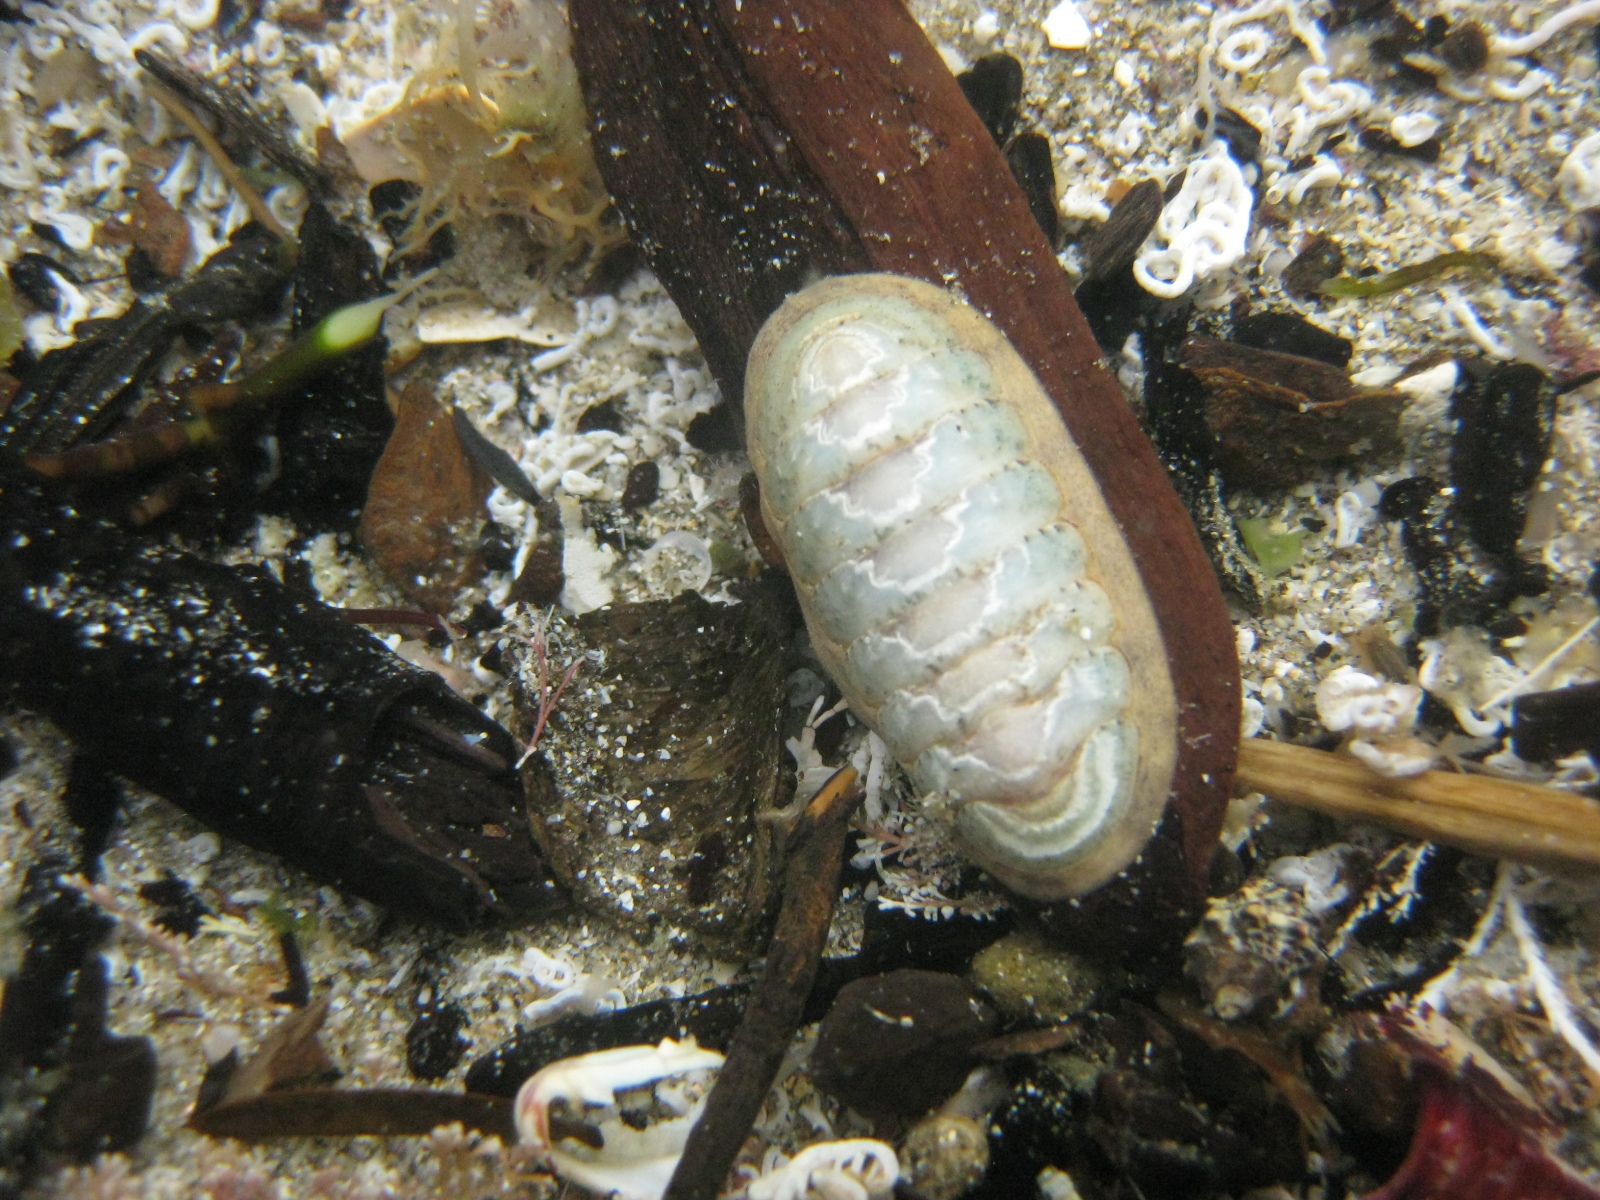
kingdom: Animalia
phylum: Mollusca
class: Polyplacophora
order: Chitonida
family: Ischnochitonidae
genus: Ischnochiton
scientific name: Ischnochiton maorianus
